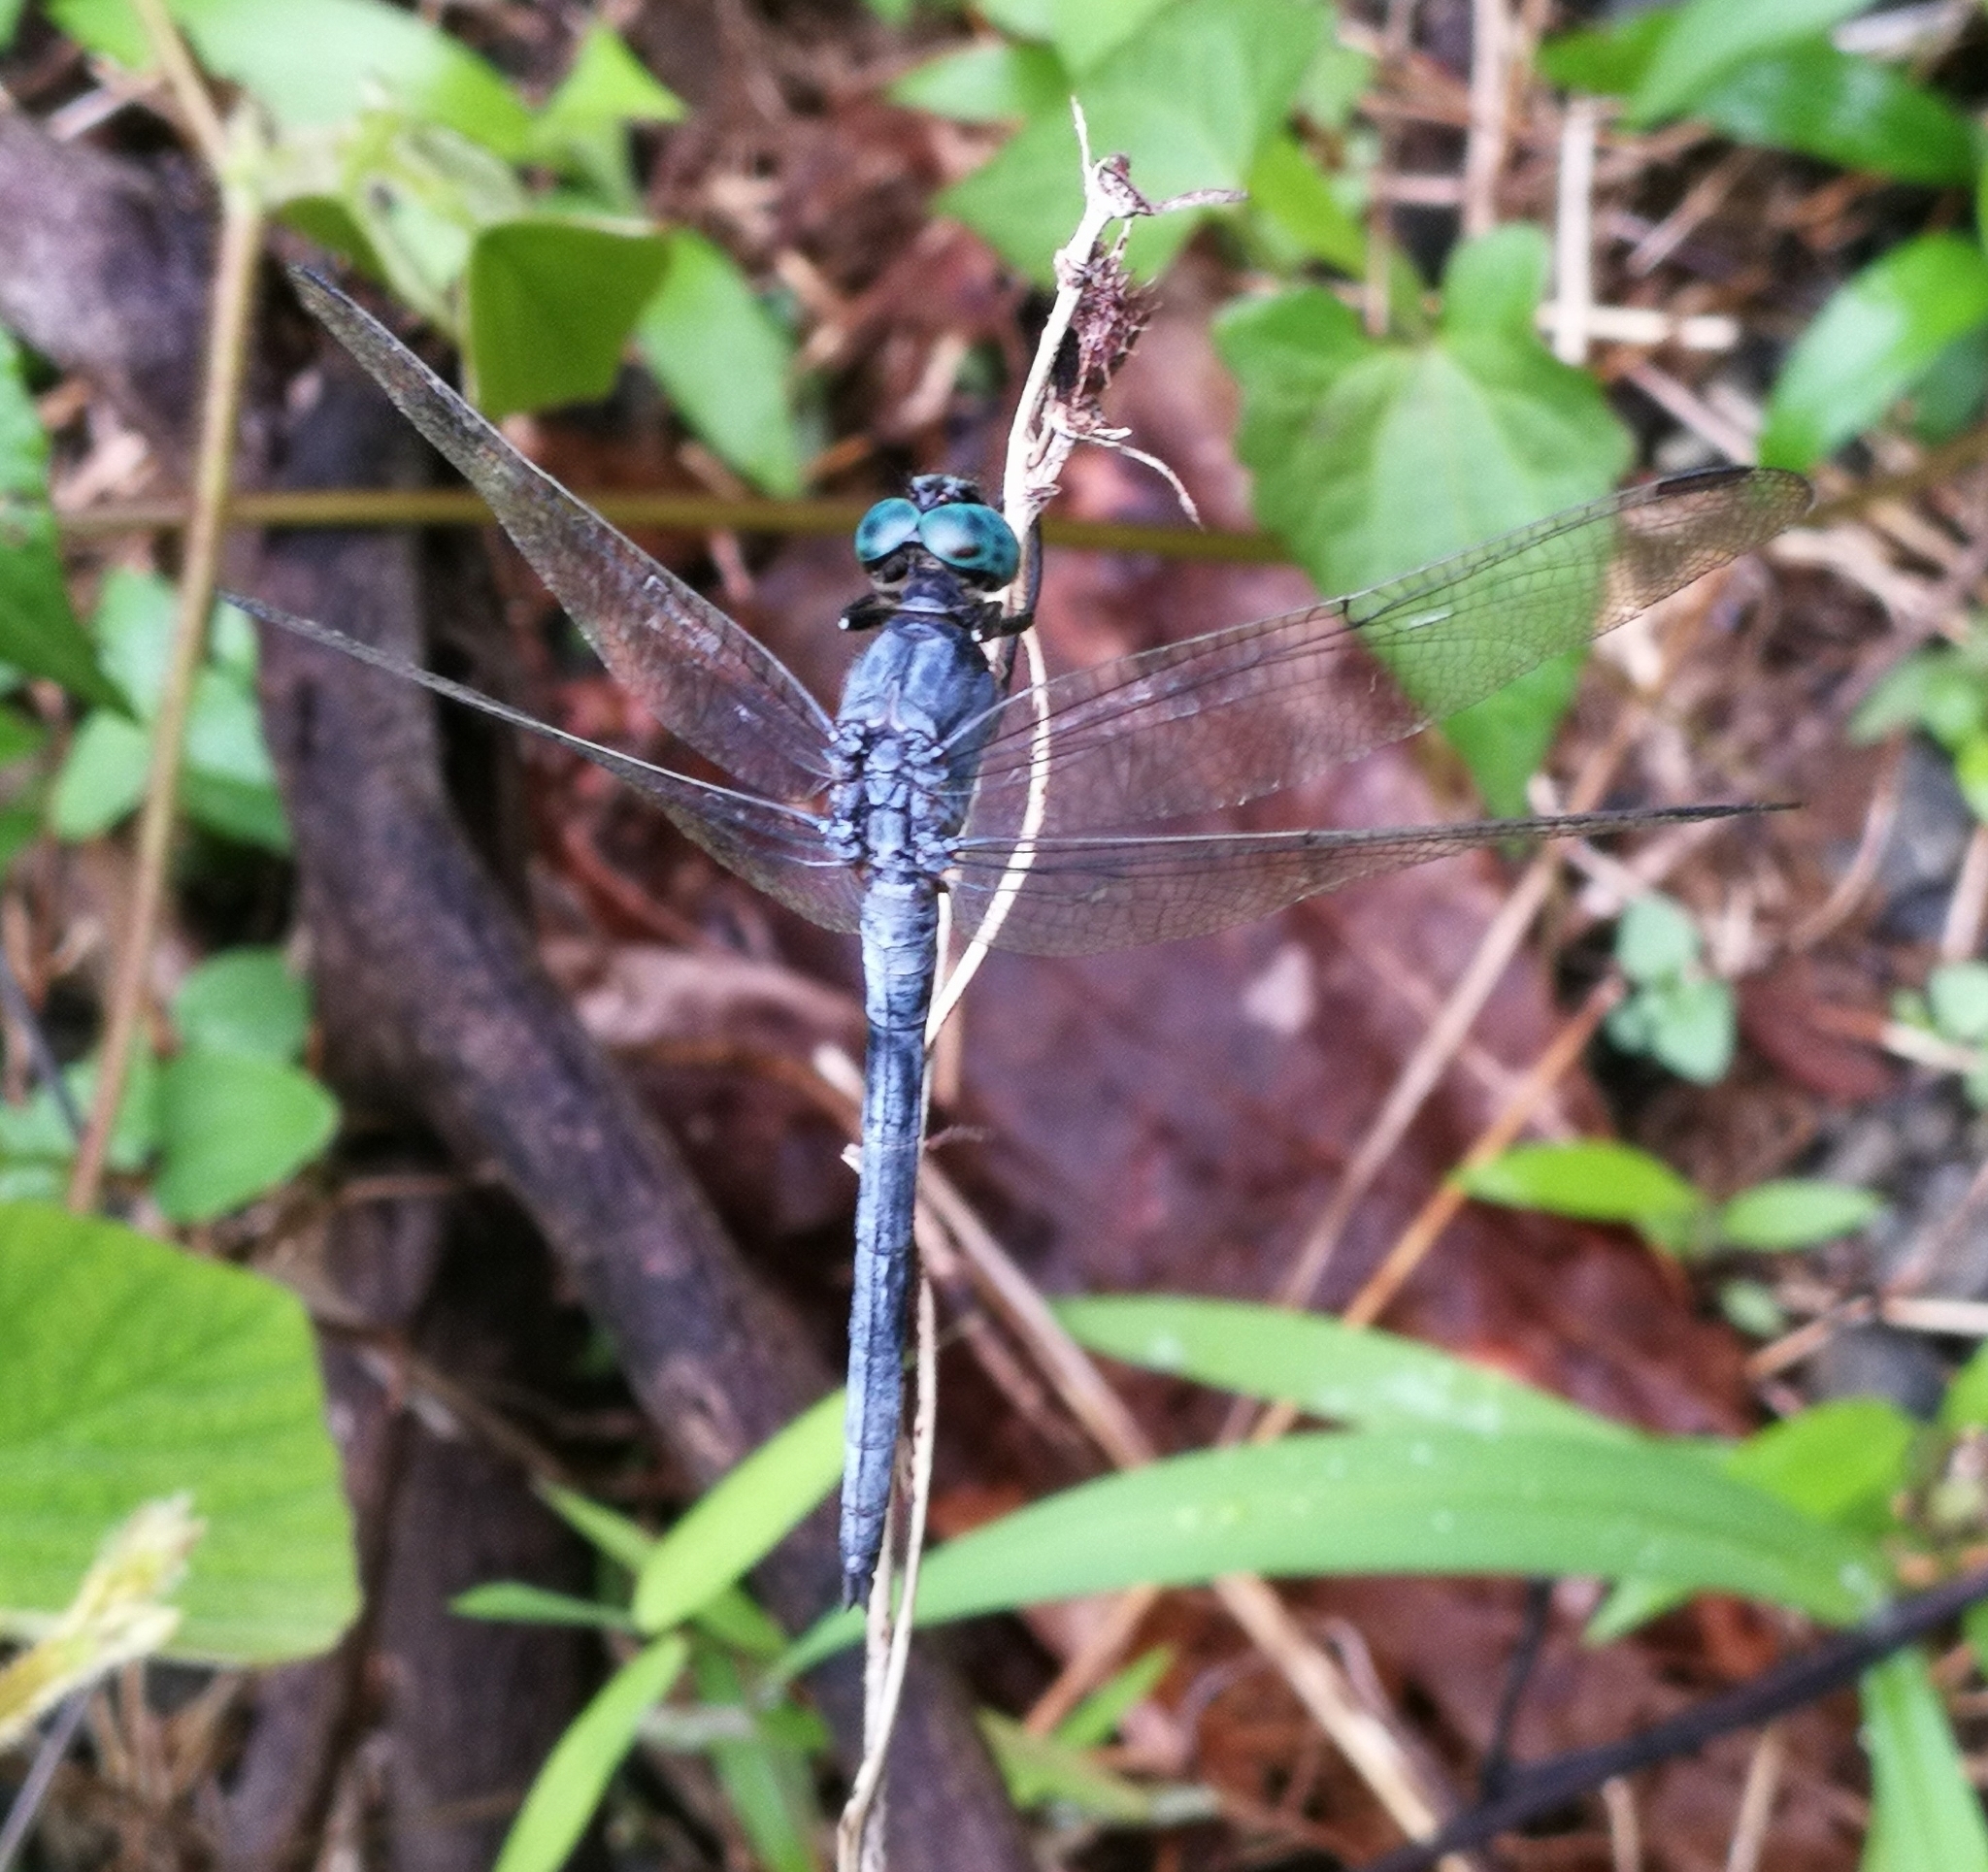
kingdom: Animalia
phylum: Arthropoda
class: Insecta
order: Odonata
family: Libellulidae
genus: Orthetrum
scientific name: Orthetrum luzonicum
